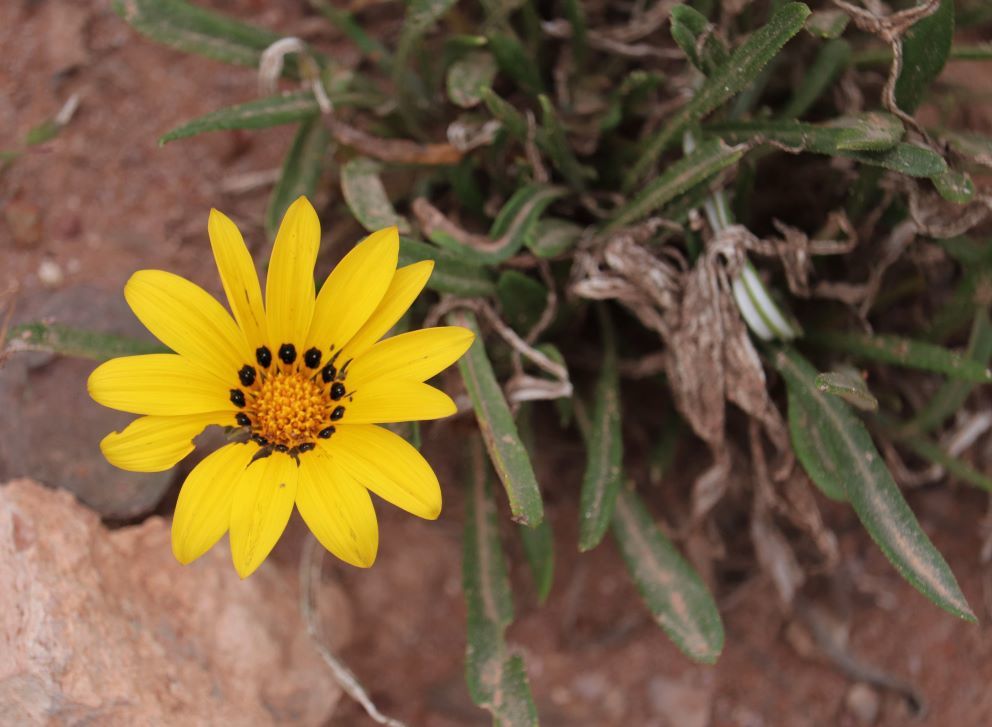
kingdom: Plantae
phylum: Tracheophyta
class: Magnoliopsida
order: Asterales
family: Asteraceae
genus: Gazania
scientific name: Gazania krebsiana
